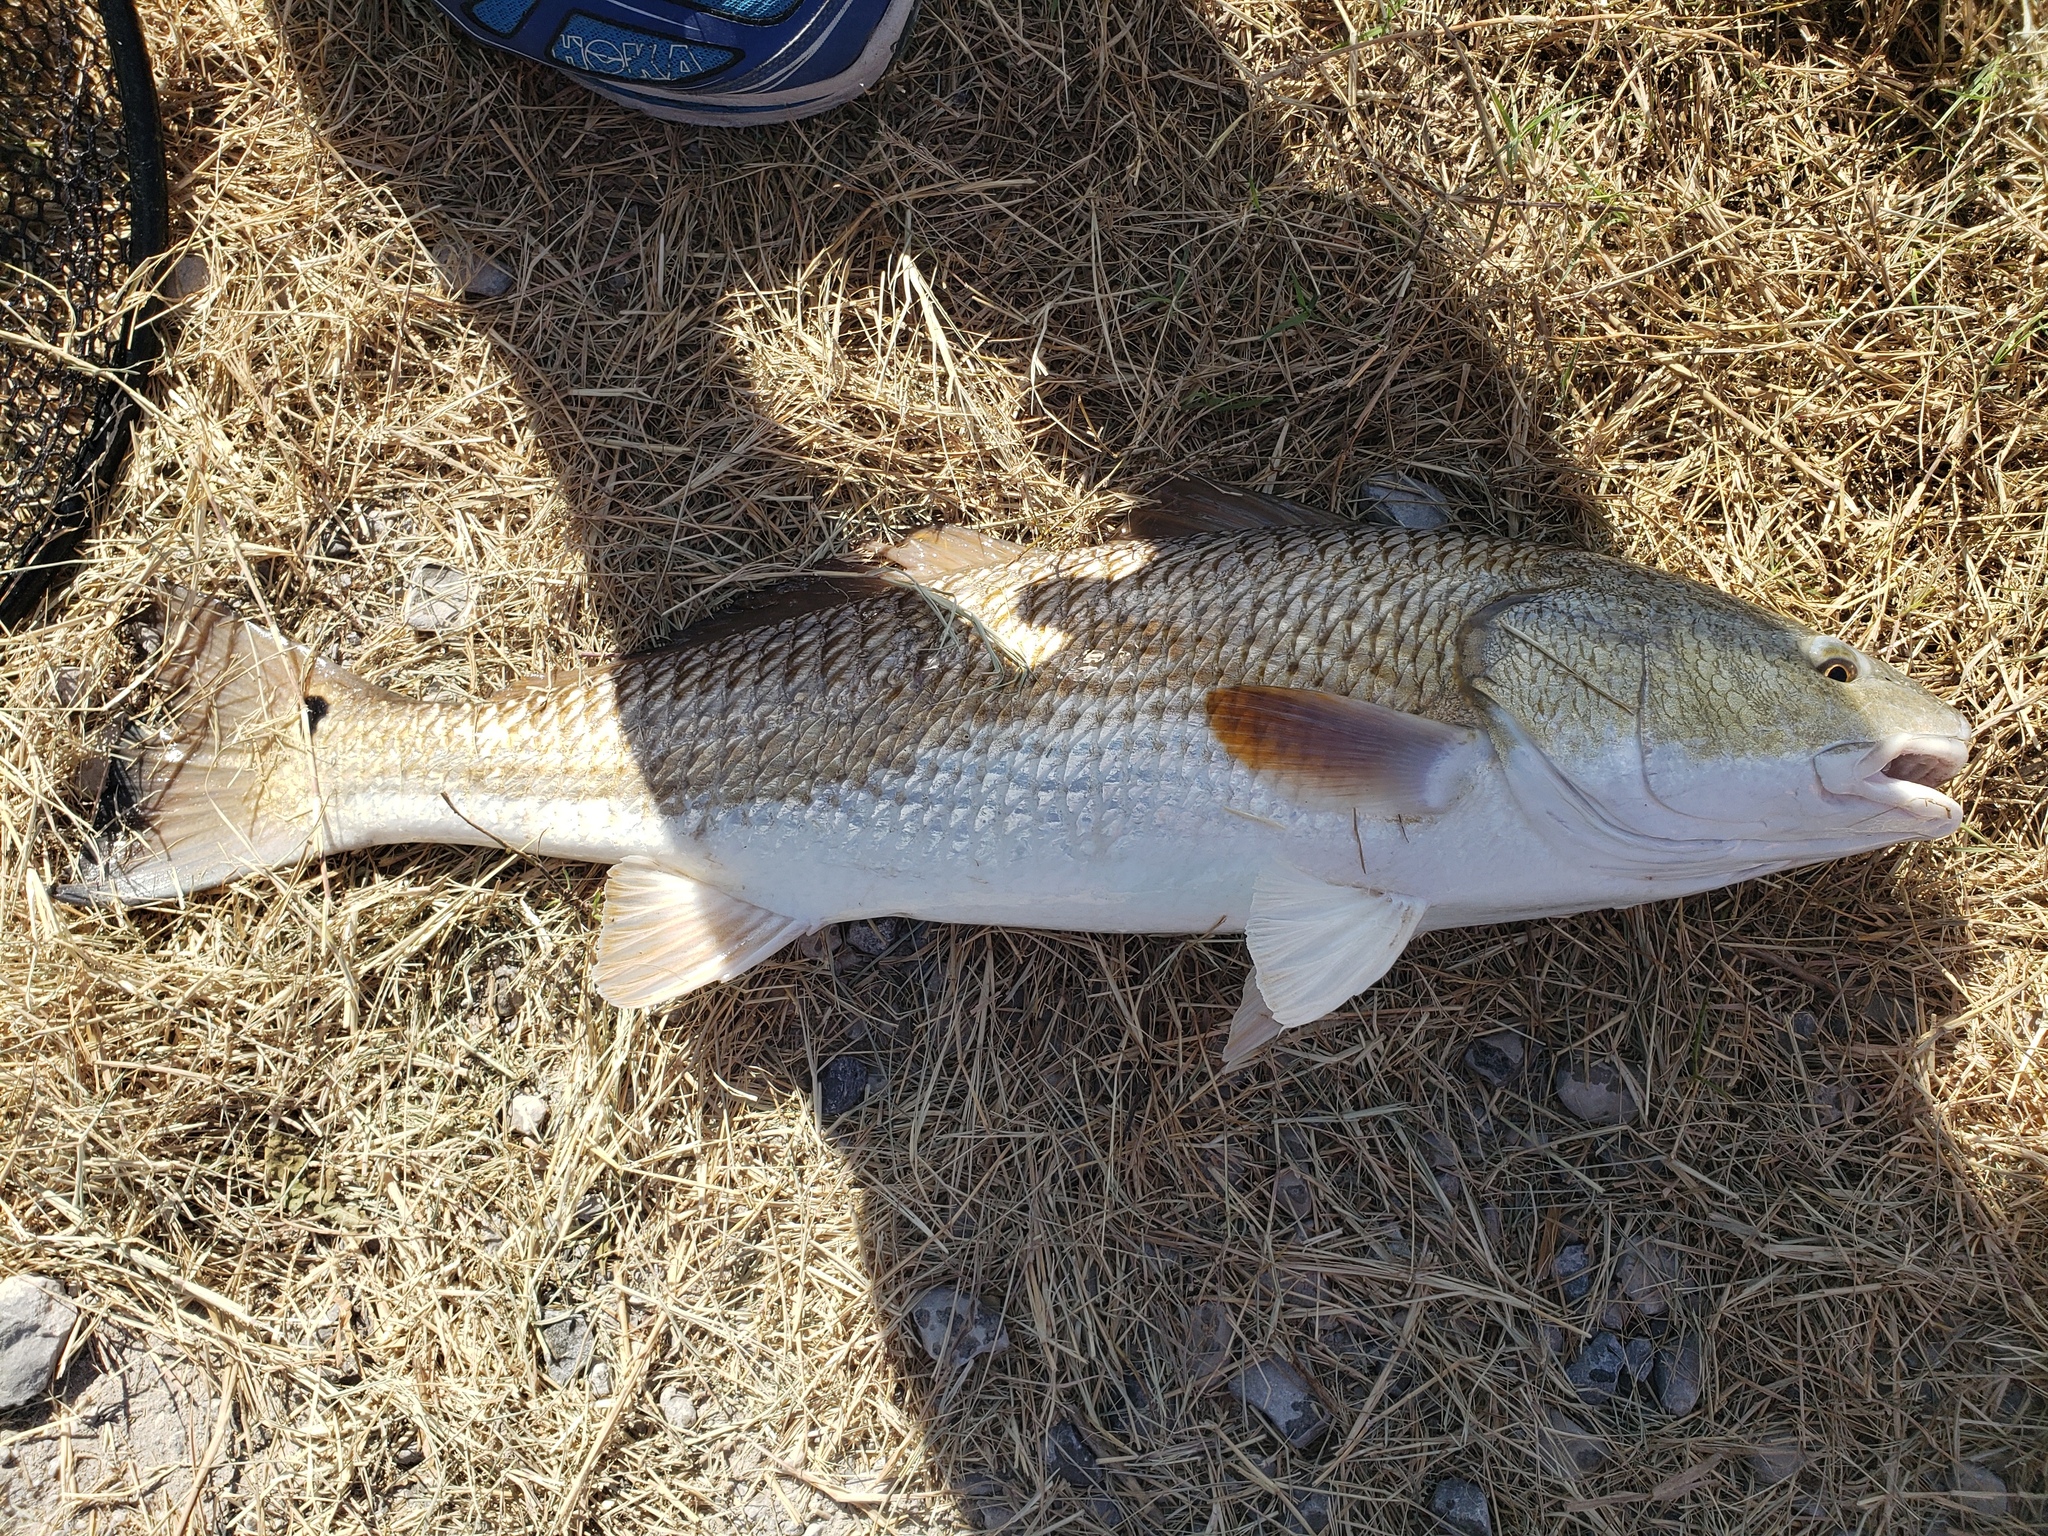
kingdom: Animalia
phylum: Chordata
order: Perciformes
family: Sciaenidae
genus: Sciaenops
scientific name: Sciaenops ocellatus
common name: Red drum
